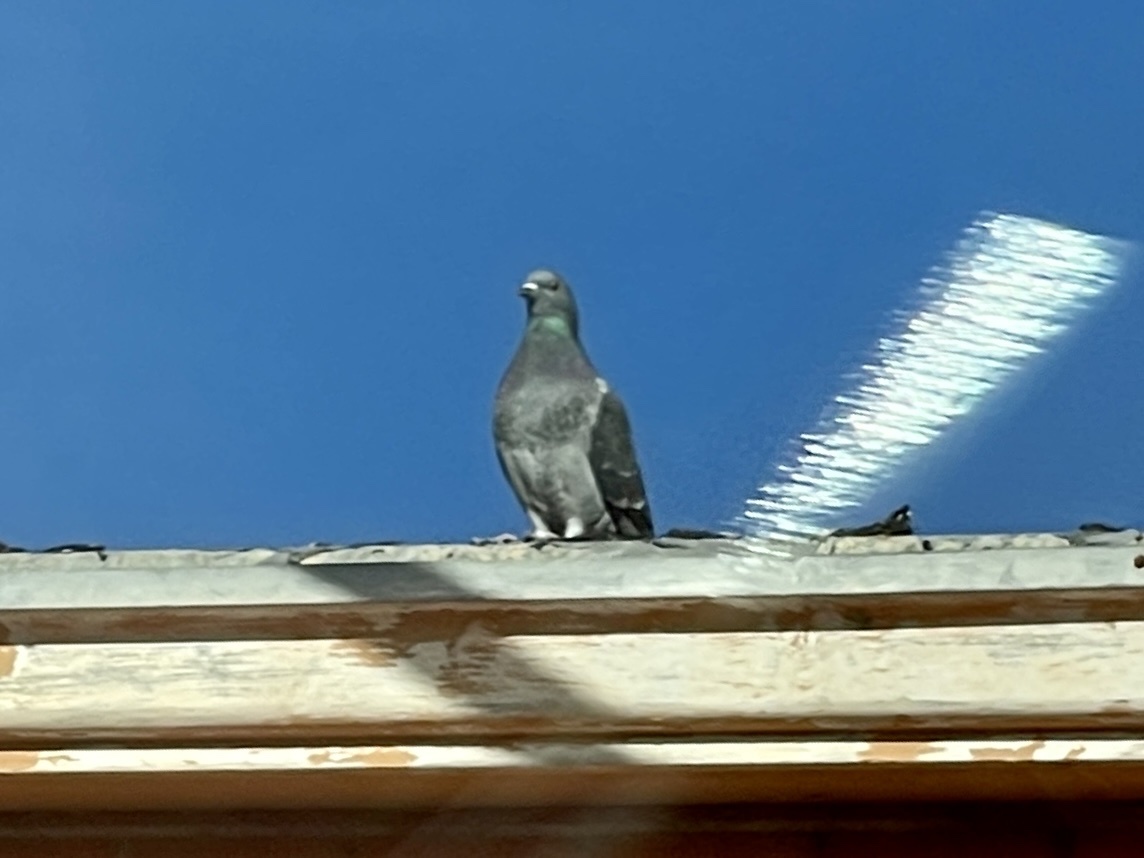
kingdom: Animalia
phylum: Chordata
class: Aves
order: Columbiformes
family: Columbidae
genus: Columba
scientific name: Columba livia
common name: Rock pigeon
